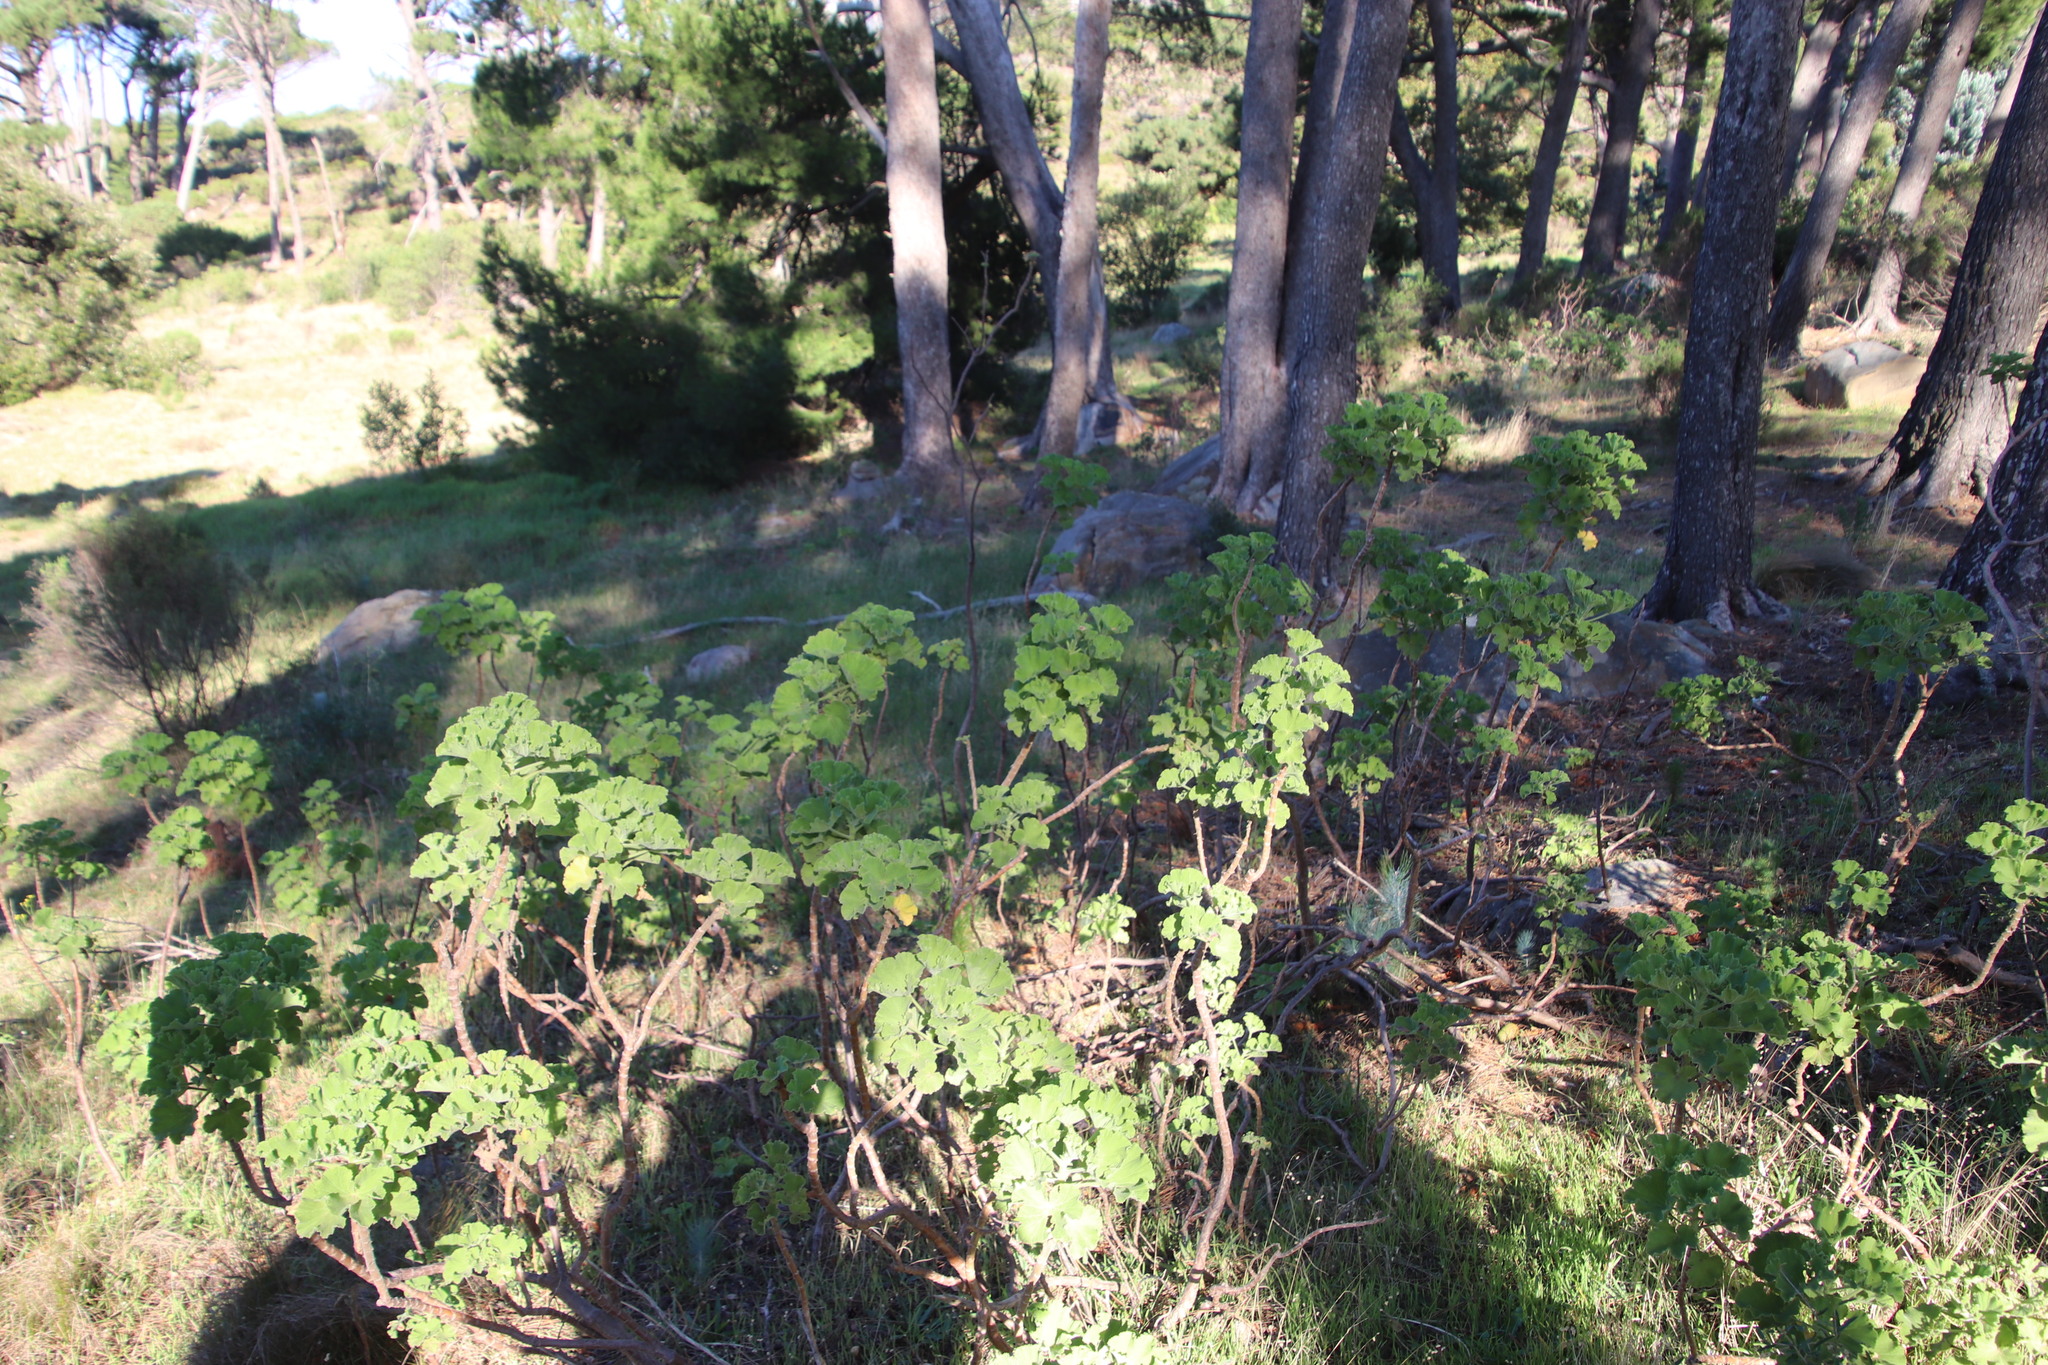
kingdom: Plantae
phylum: Tracheophyta
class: Magnoliopsida
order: Geraniales
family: Geraniaceae
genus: Pelargonium
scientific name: Pelargonium cucullatum
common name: Tree pelargonium
